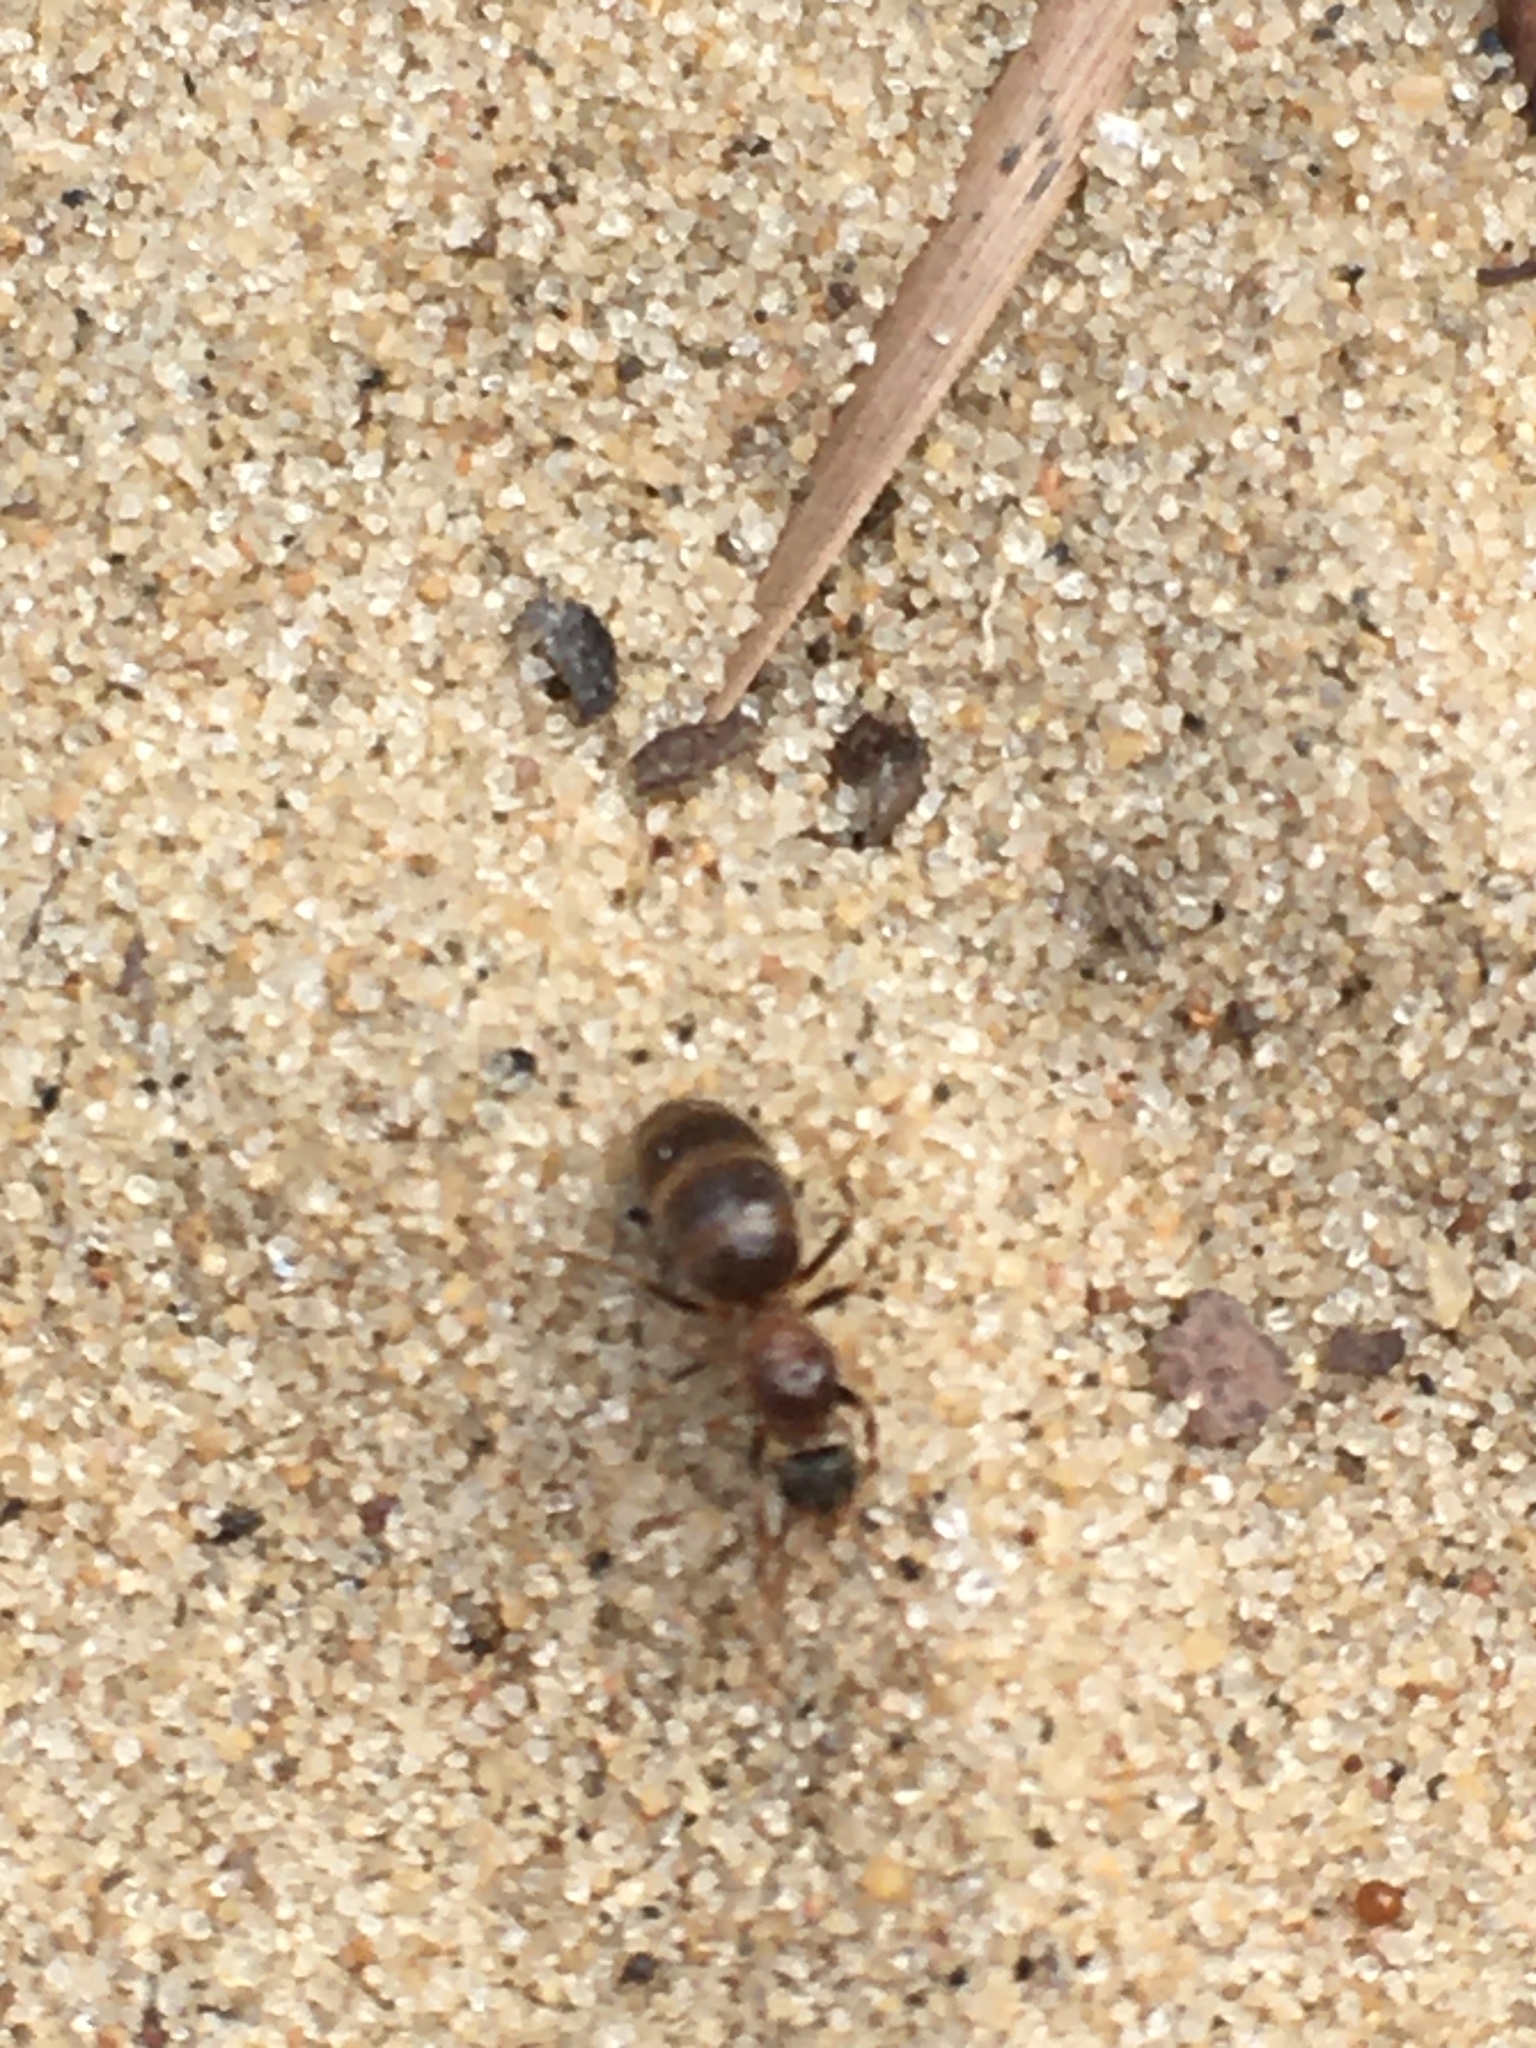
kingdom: Animalia
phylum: Arthropoda
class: Insecta
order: Hymenoptera
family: Formicidae
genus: Prenolepis
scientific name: Prenolepis imparis
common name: Small honey ant
